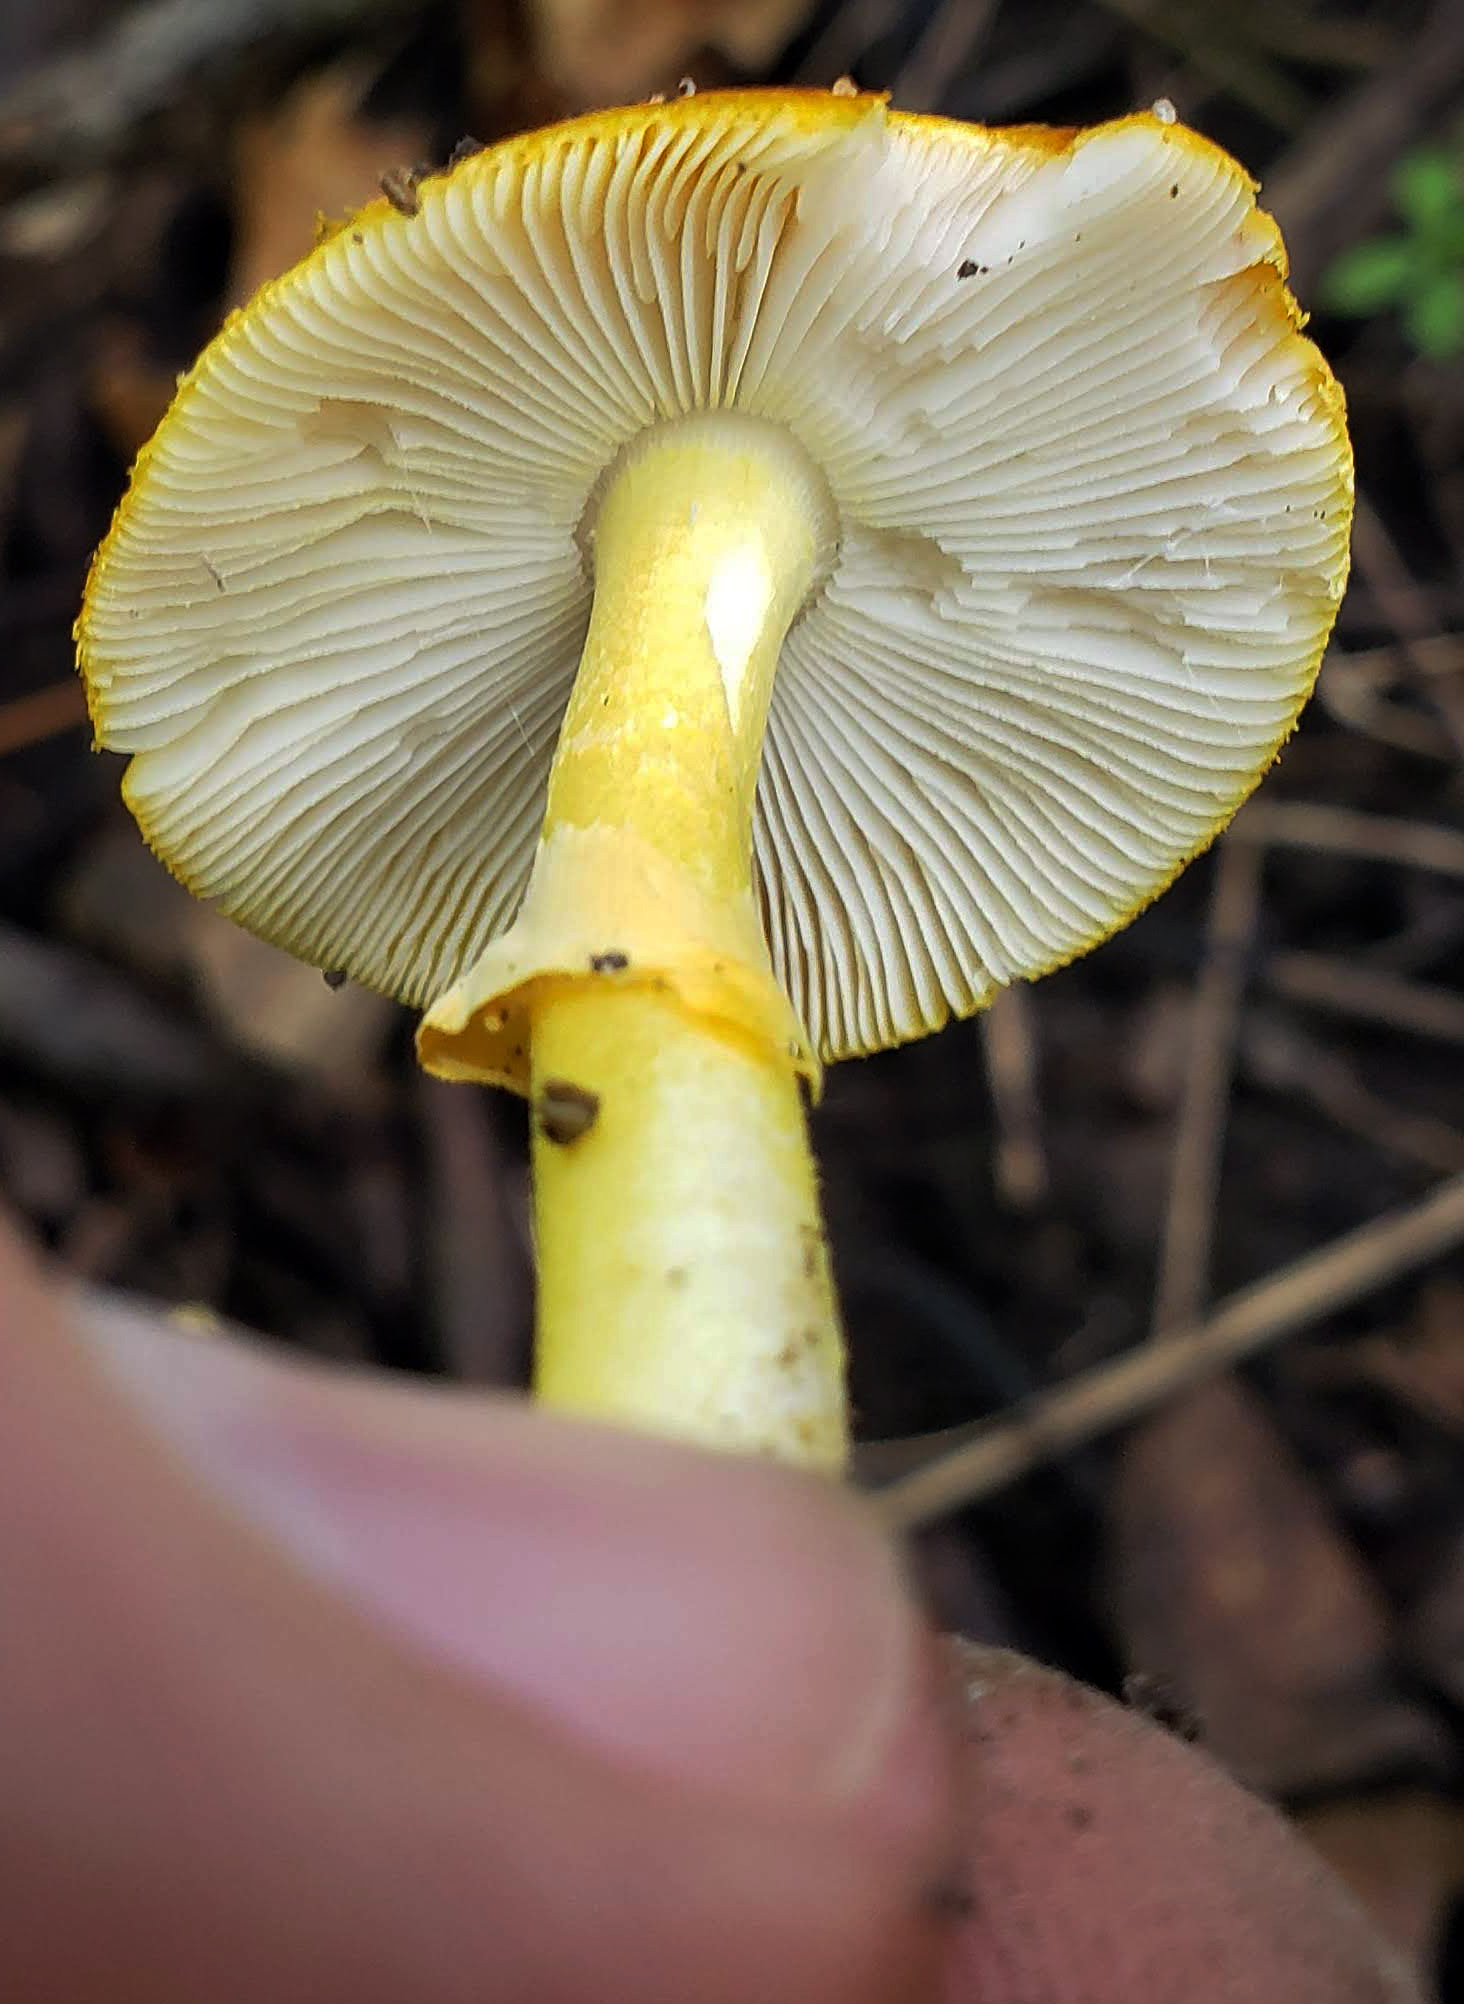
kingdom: Fungi
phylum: Basidiomycota
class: Agaricomycetes
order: Agaricales
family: Amanitaceae
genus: Amanita
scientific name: Amanita flavoconia
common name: Yellow patches
